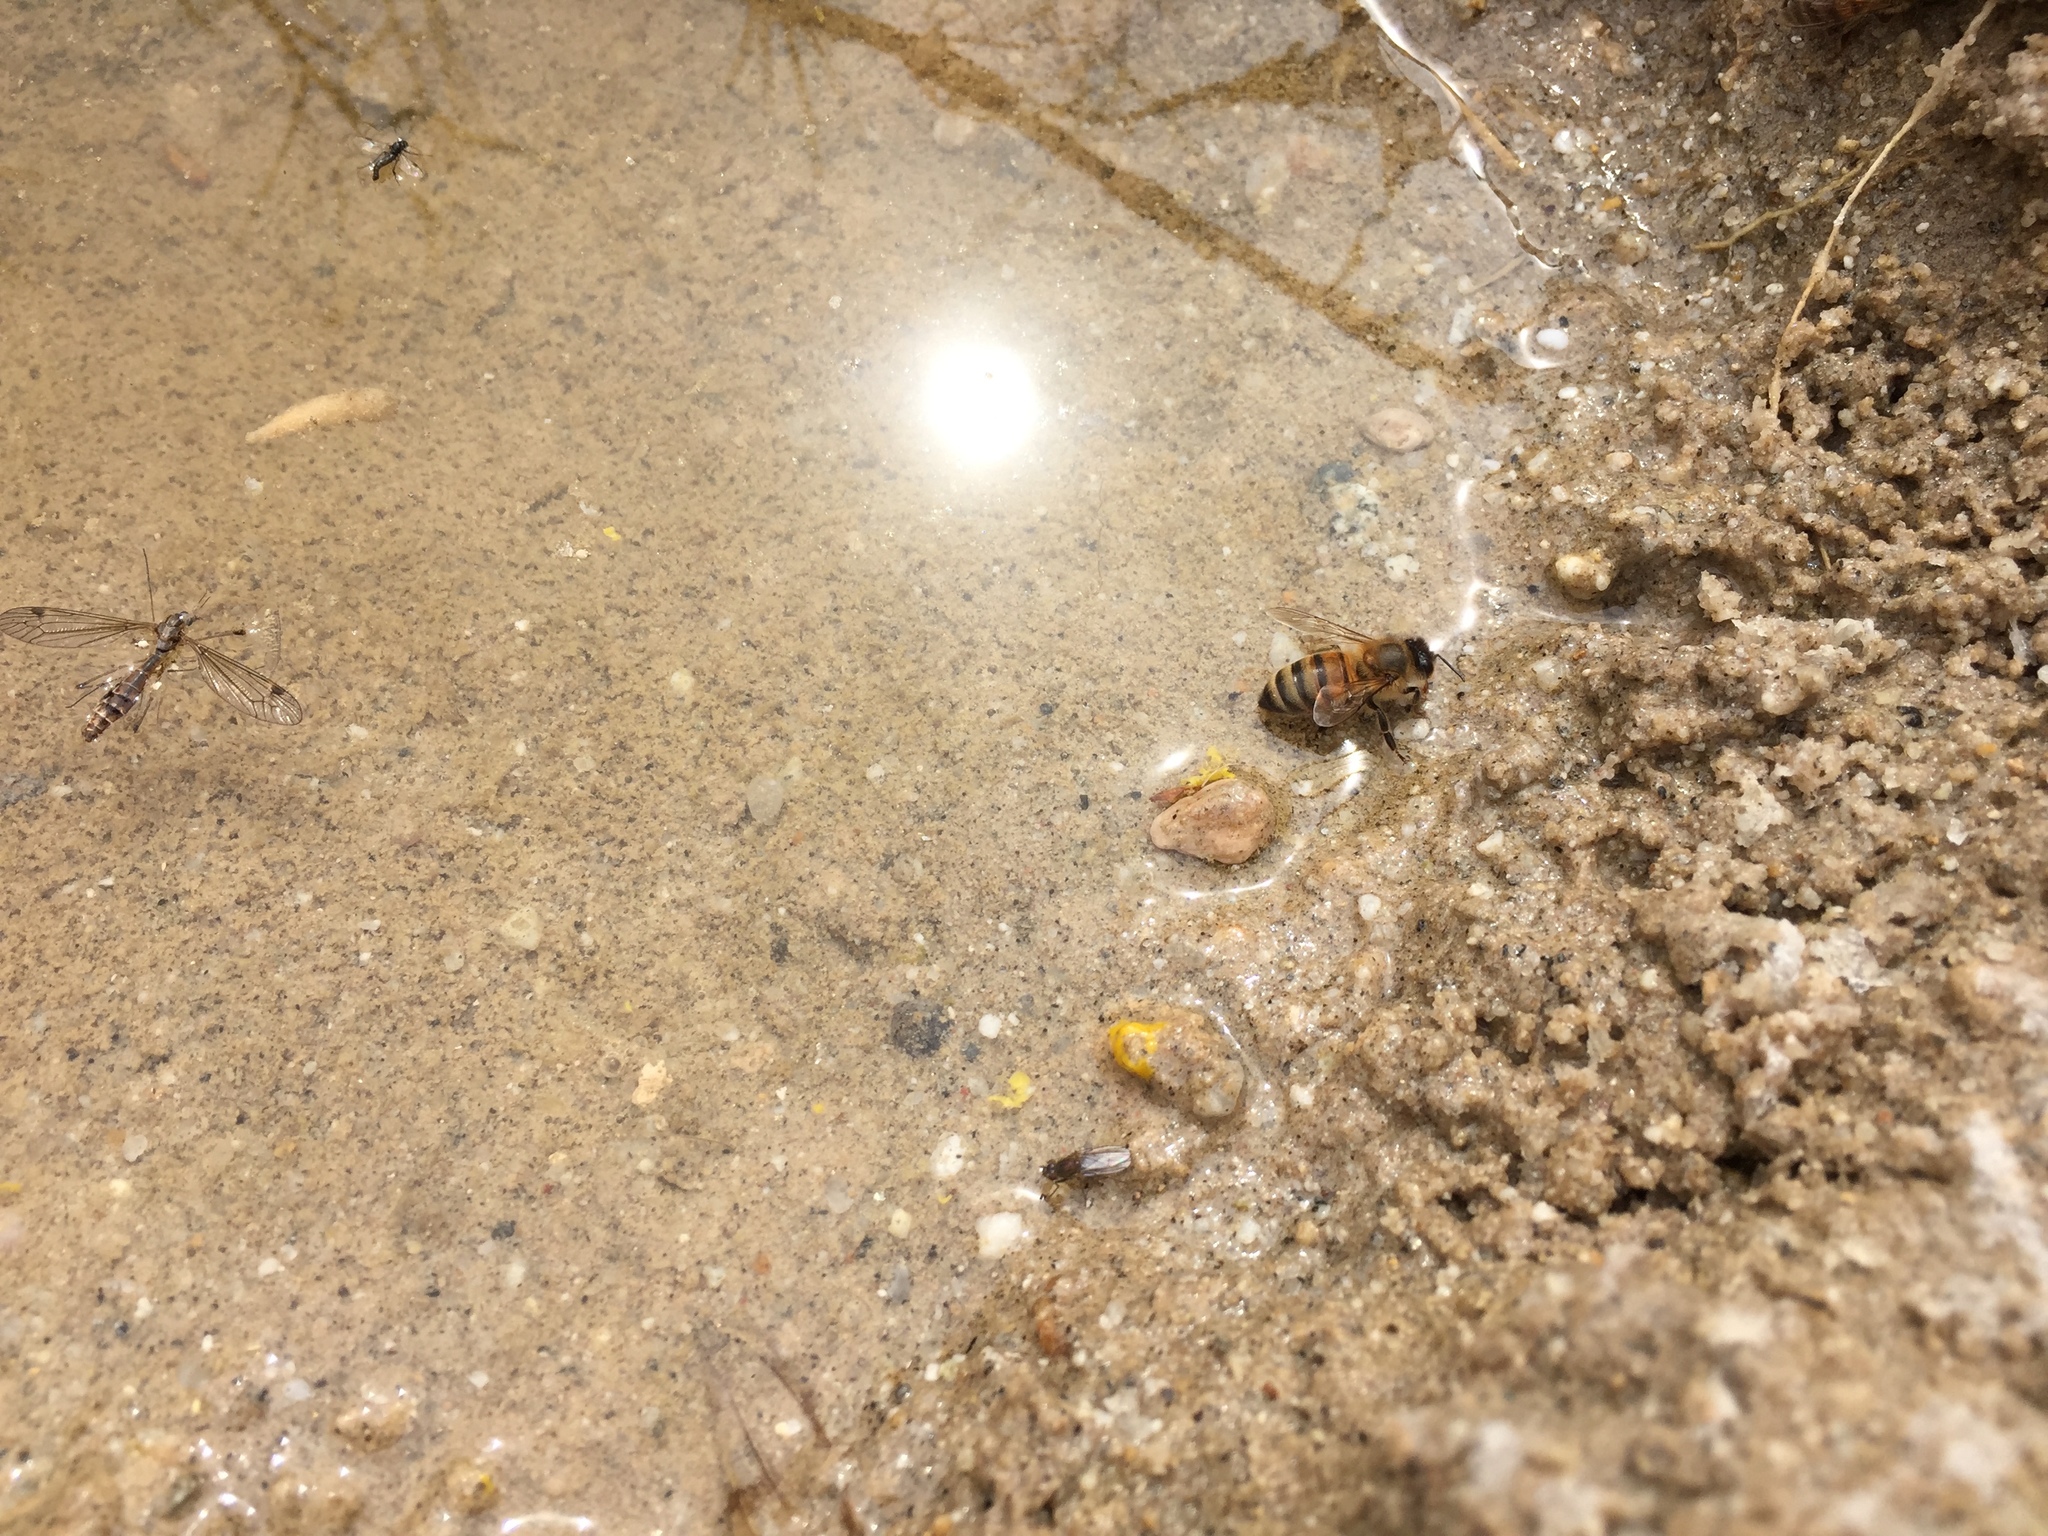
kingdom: Animalia
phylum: Arthropoda
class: Insecta
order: Hymenoptera
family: Apidae
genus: Apis
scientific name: Apis mellifera
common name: Honey bee
